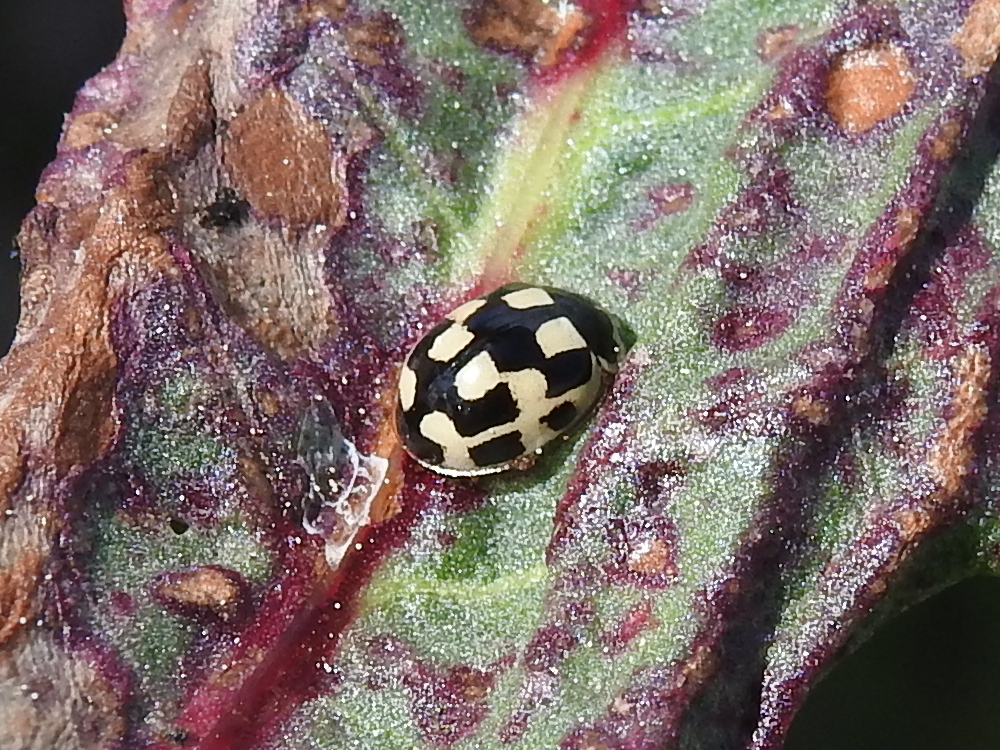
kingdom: Animalia
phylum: Arthropoda
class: Insecta
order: Coleoptera
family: Coccinellidae
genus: Propylaea
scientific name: Propylaea quatuordecimpunctata
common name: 14-spotted ladybird beetle
